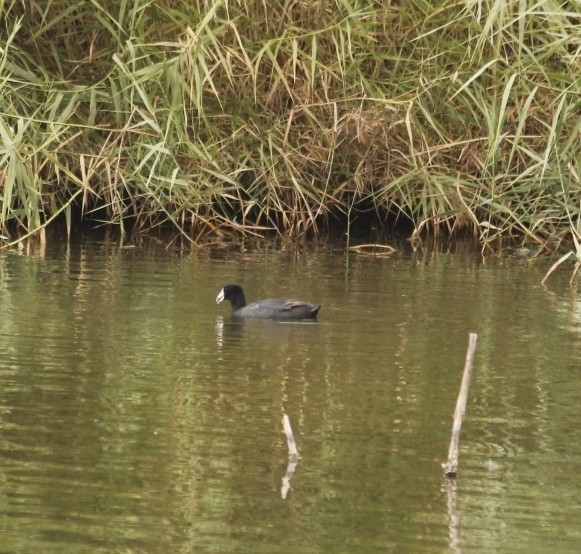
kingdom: Animalia
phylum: Chordata
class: Aves
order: Gruiformes
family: Rallidae
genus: Fulica
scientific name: Fulica americana
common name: American coot
